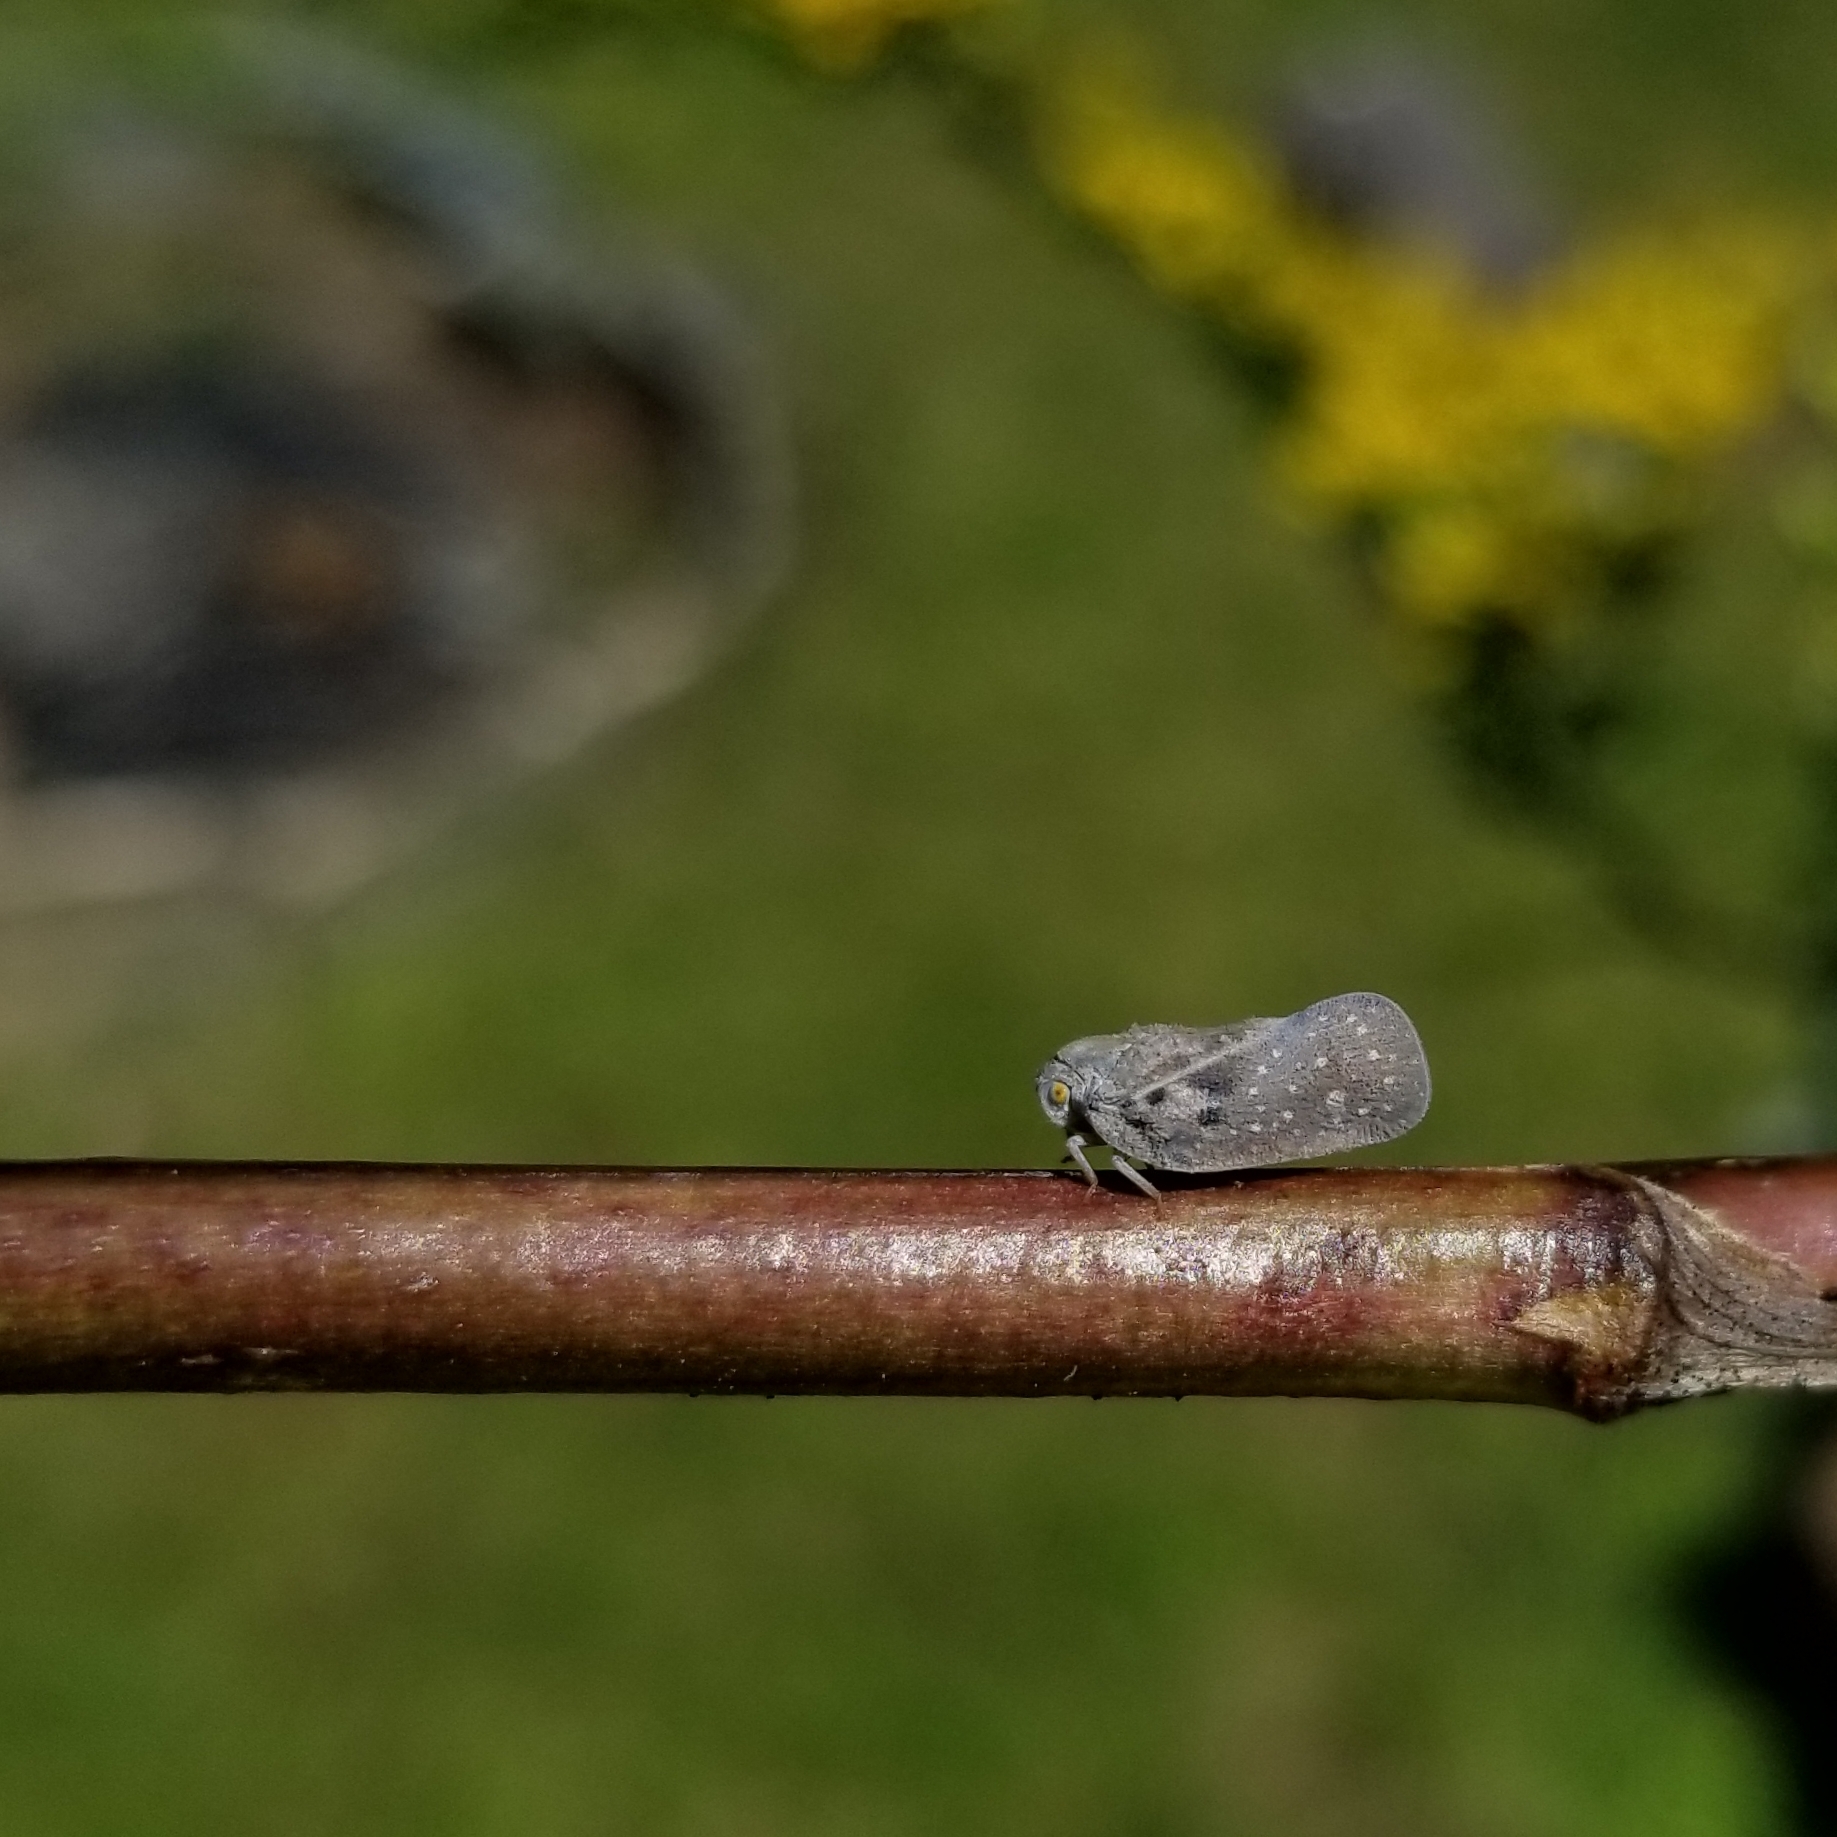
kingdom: Animalia
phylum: Arthropoda
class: Insecta
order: Hemiptera
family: Flatidae
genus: Metcalfa
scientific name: Metcalfa pruinosa
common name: Citrus flatid planthopper
